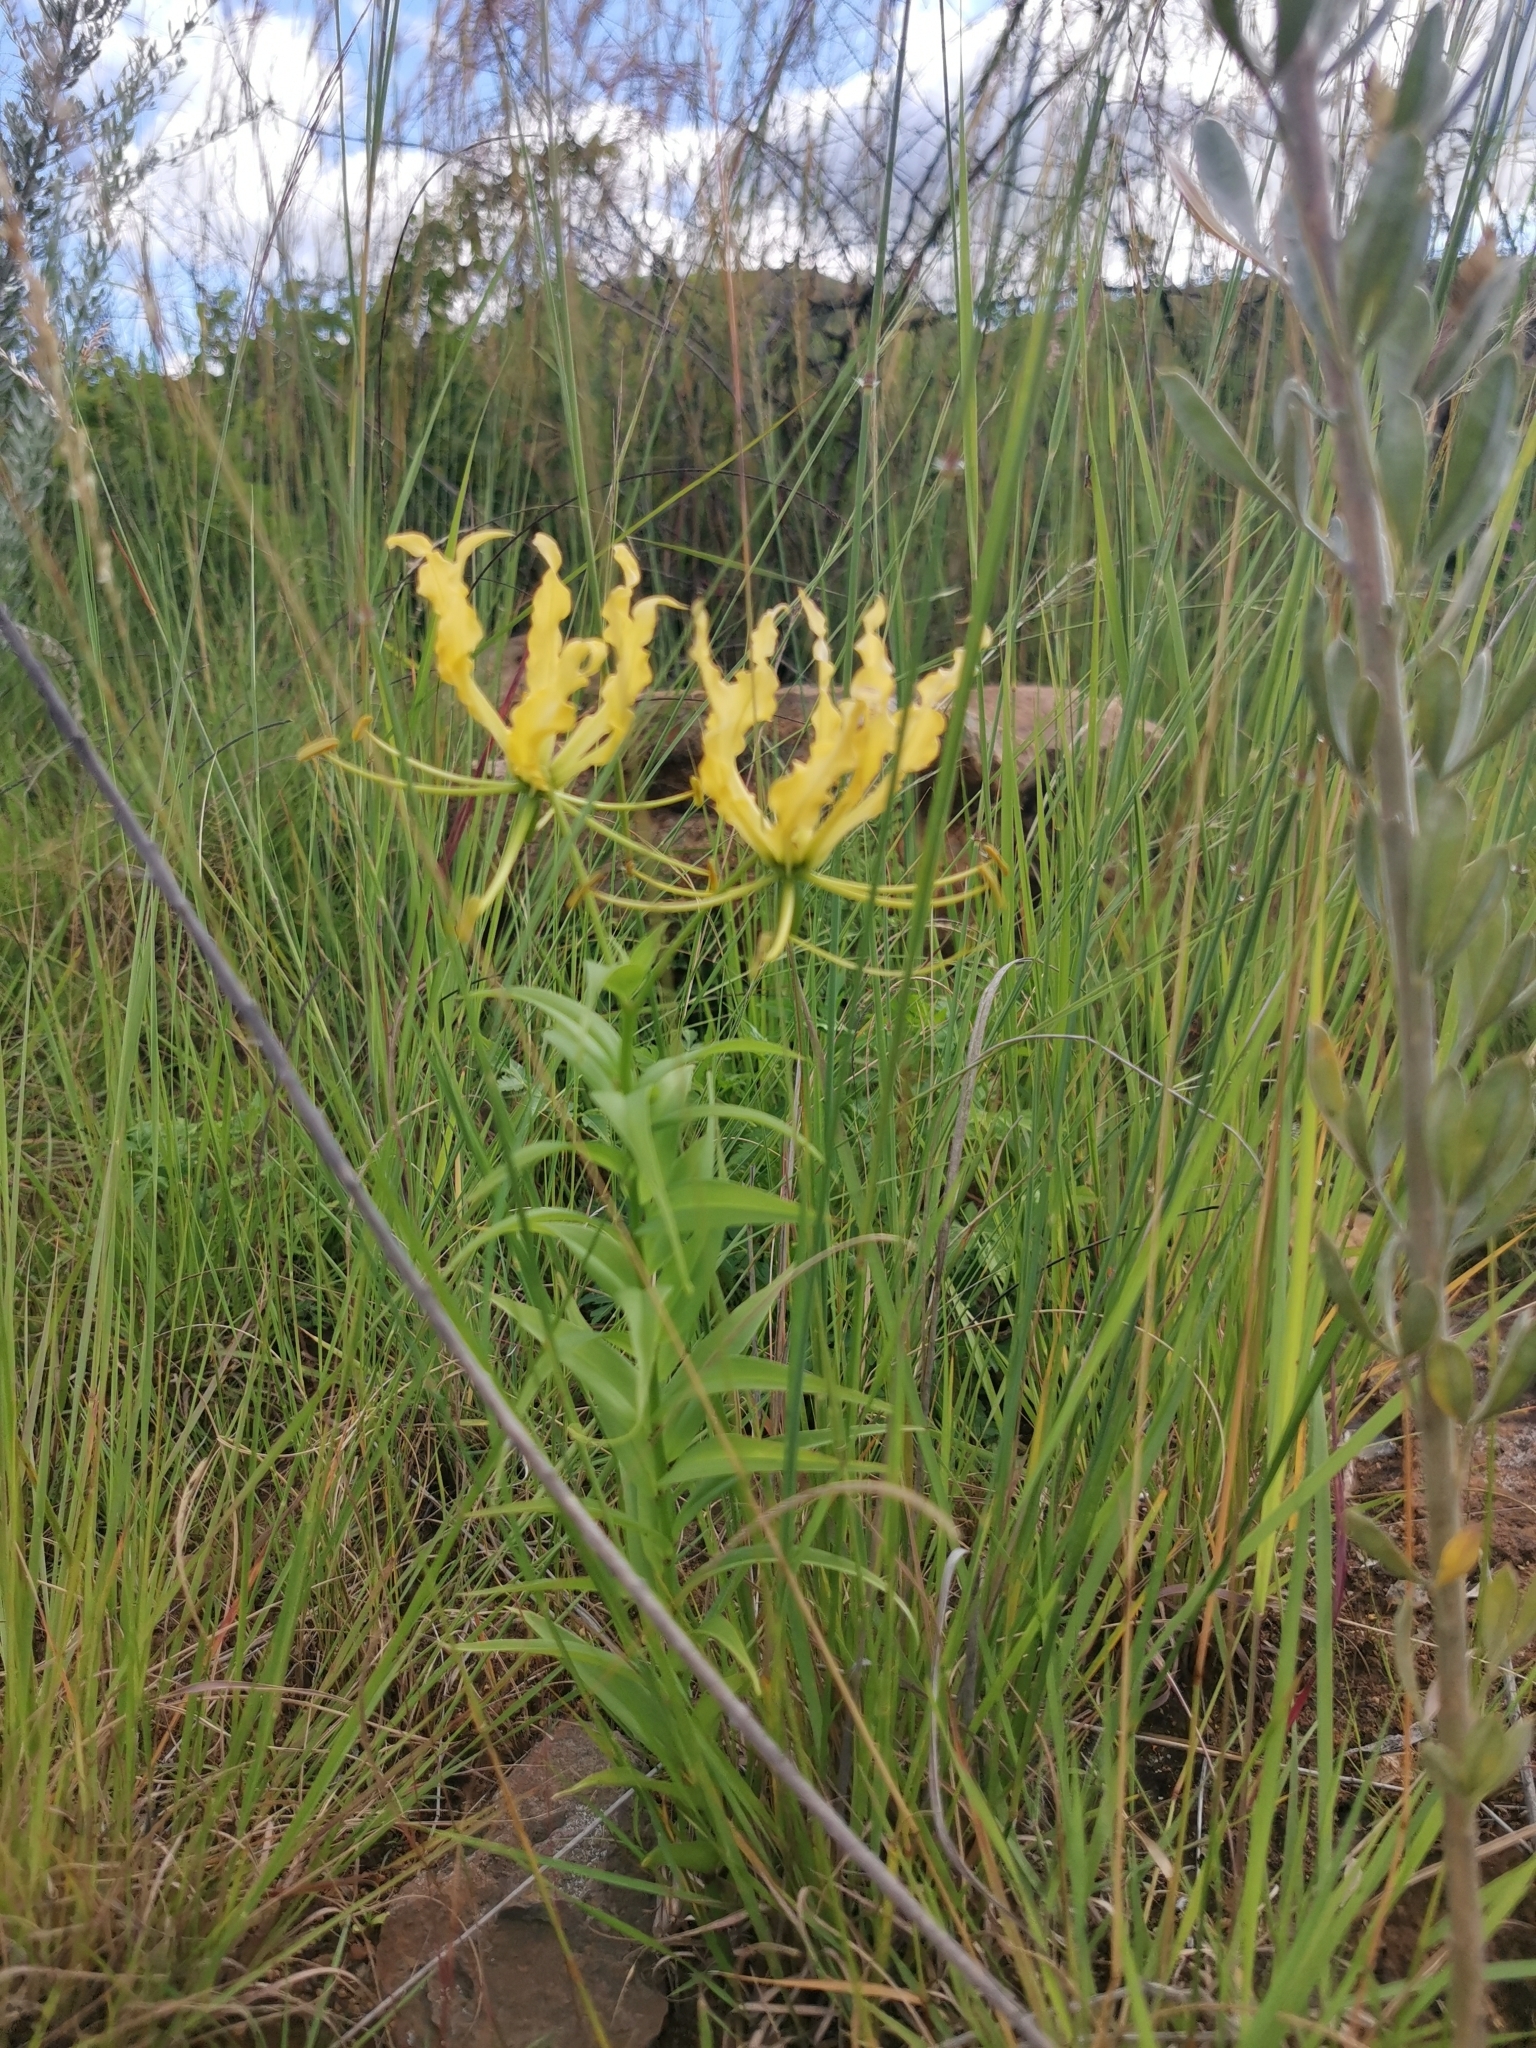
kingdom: Plantae
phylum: Tracheophyta
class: Liliopsida
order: Liliales
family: Colchicaceae
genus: Gloriosa
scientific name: Gloriosa superba
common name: Flame lily
